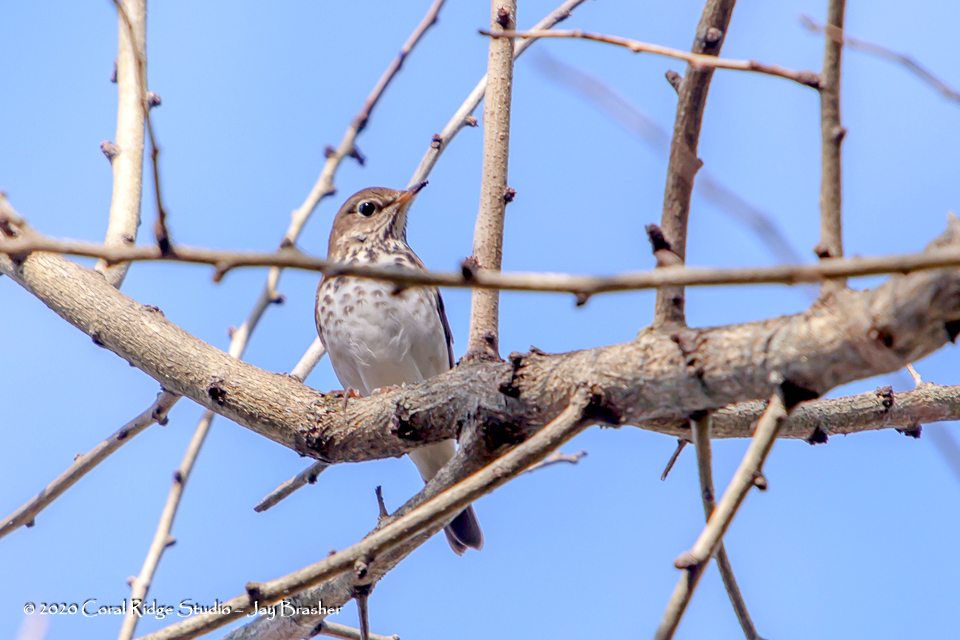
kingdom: Animalia
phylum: Chordata
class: Aves
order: Passeriformes
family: Turdidae
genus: Catharus
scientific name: Catharus guttatus
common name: Hermit thrush
